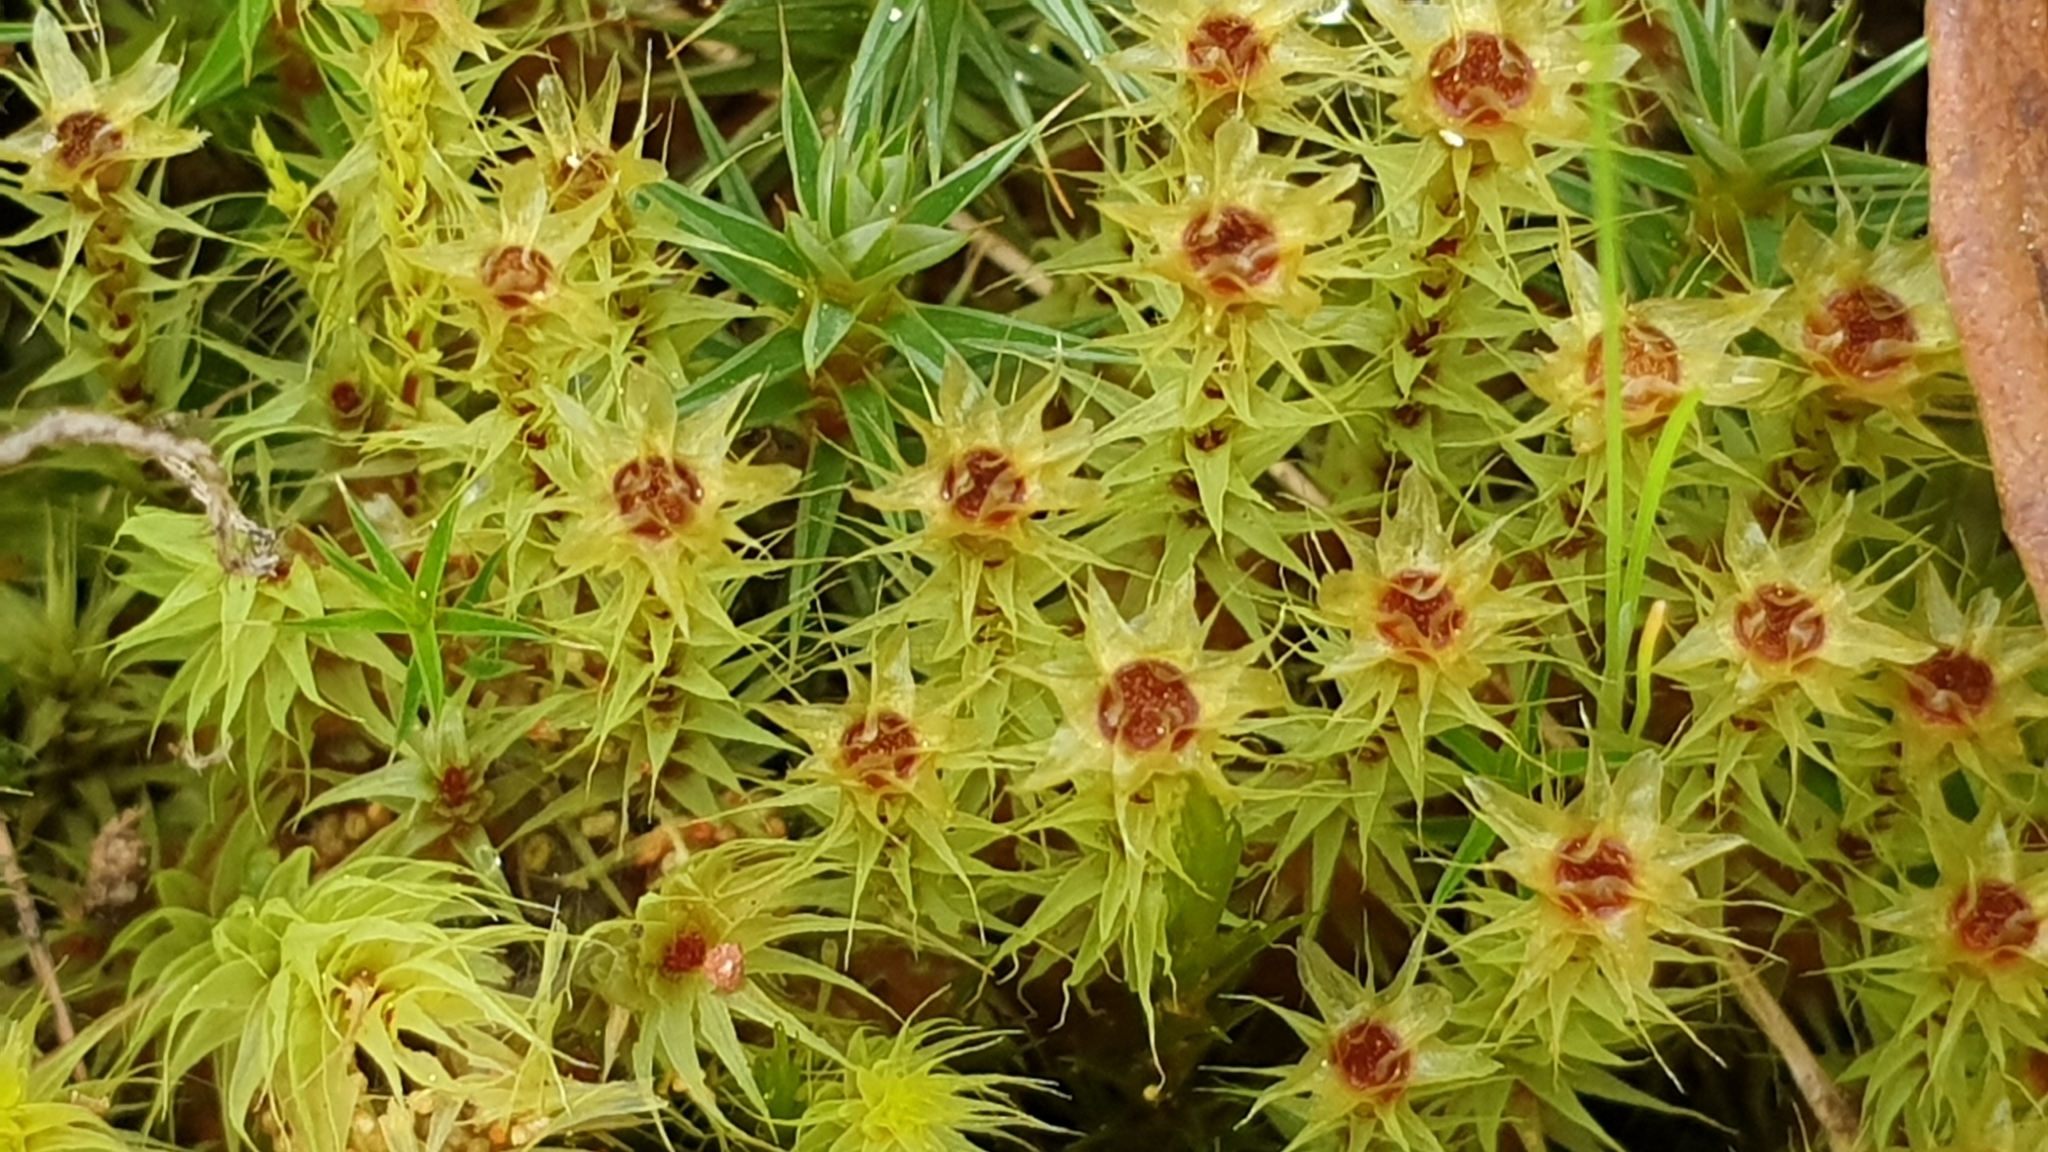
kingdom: Plantae
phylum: Bryophyta
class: Bryopsida
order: Bartramiales
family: Bartramiaceae
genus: Breutelia
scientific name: Breutelia affinis
